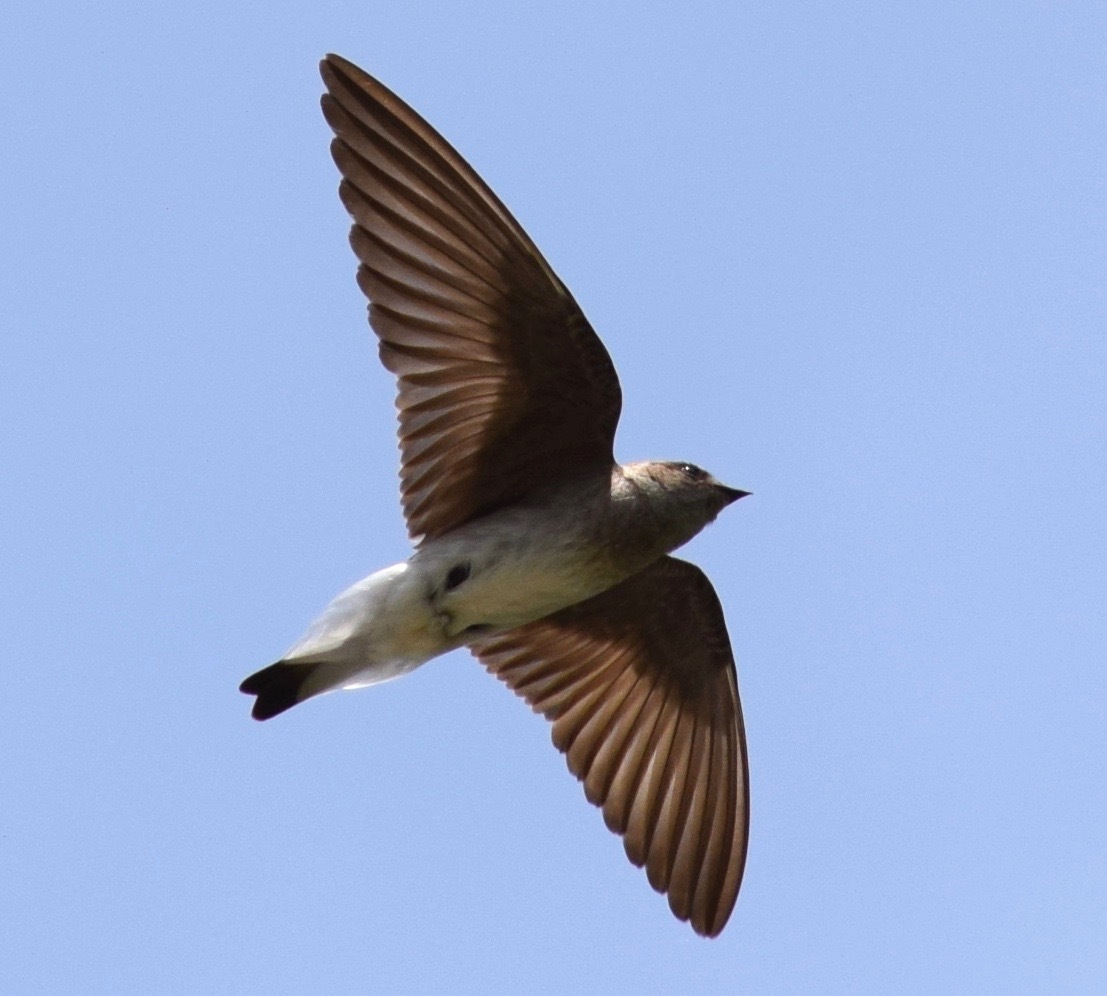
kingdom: Animalia
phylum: Chordata
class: Aves
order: Passeriformes
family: Hirundinidae
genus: Stelgidopteryx
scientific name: Stelgidopteryx serripennis
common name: Northern rough-winged swallow
